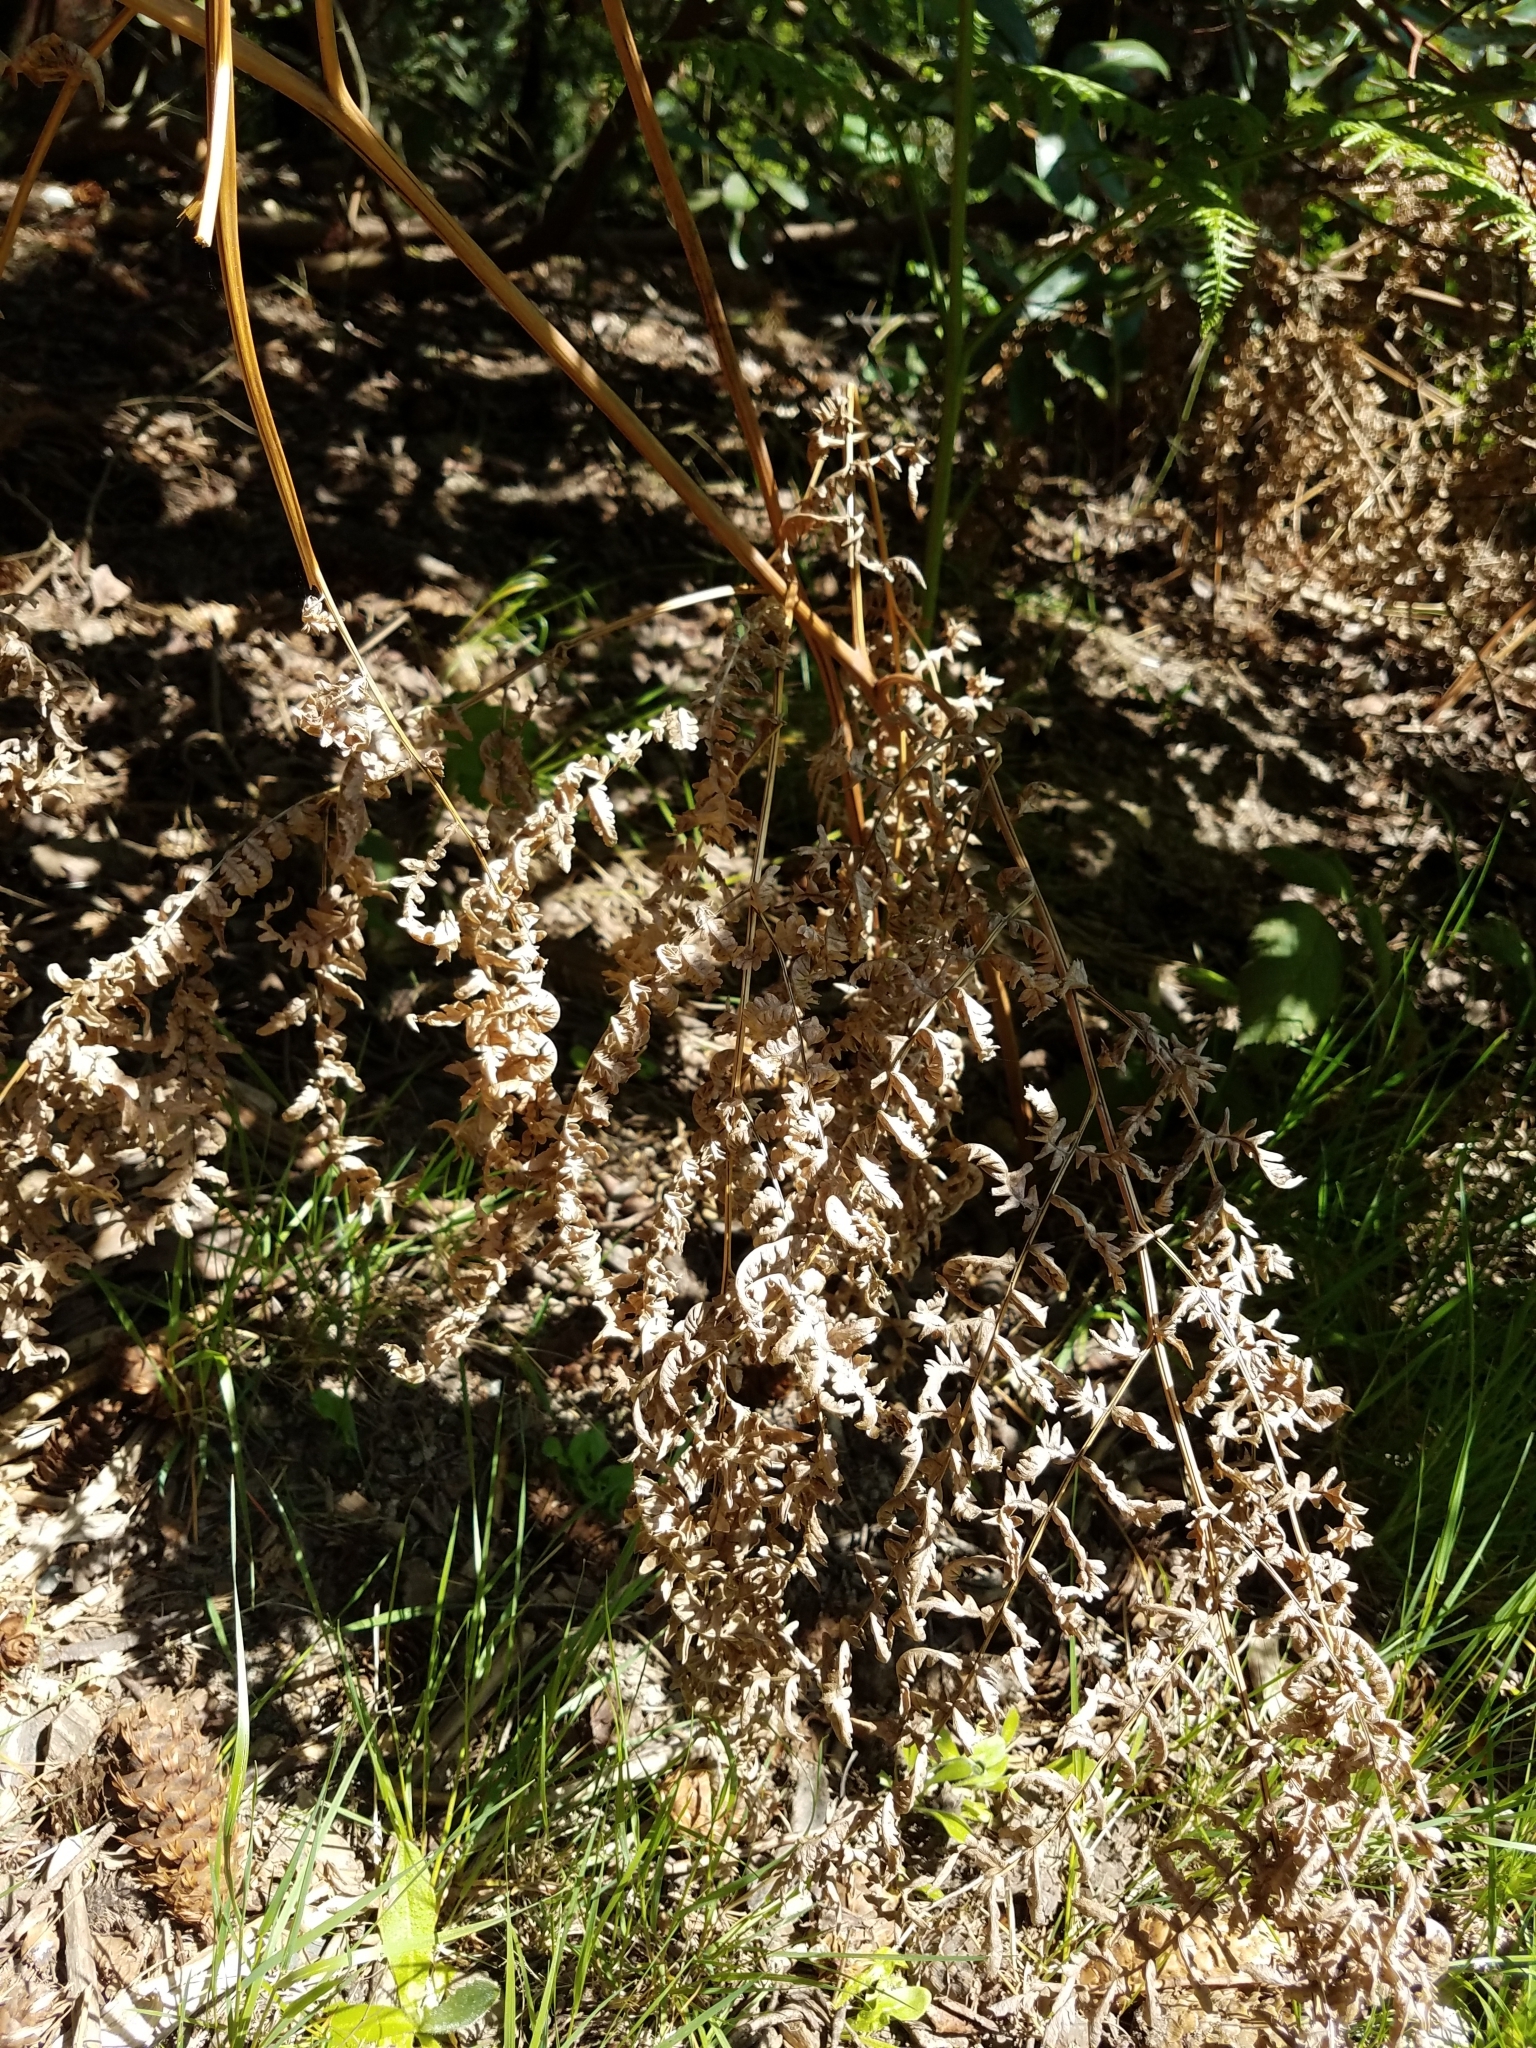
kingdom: Plantae
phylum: Tracheophyta
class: Polypodiopsida
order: Polypodiales
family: Dennstaedtiaceae
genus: Pteridium
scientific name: Pteridium aquilinum
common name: Bracken
